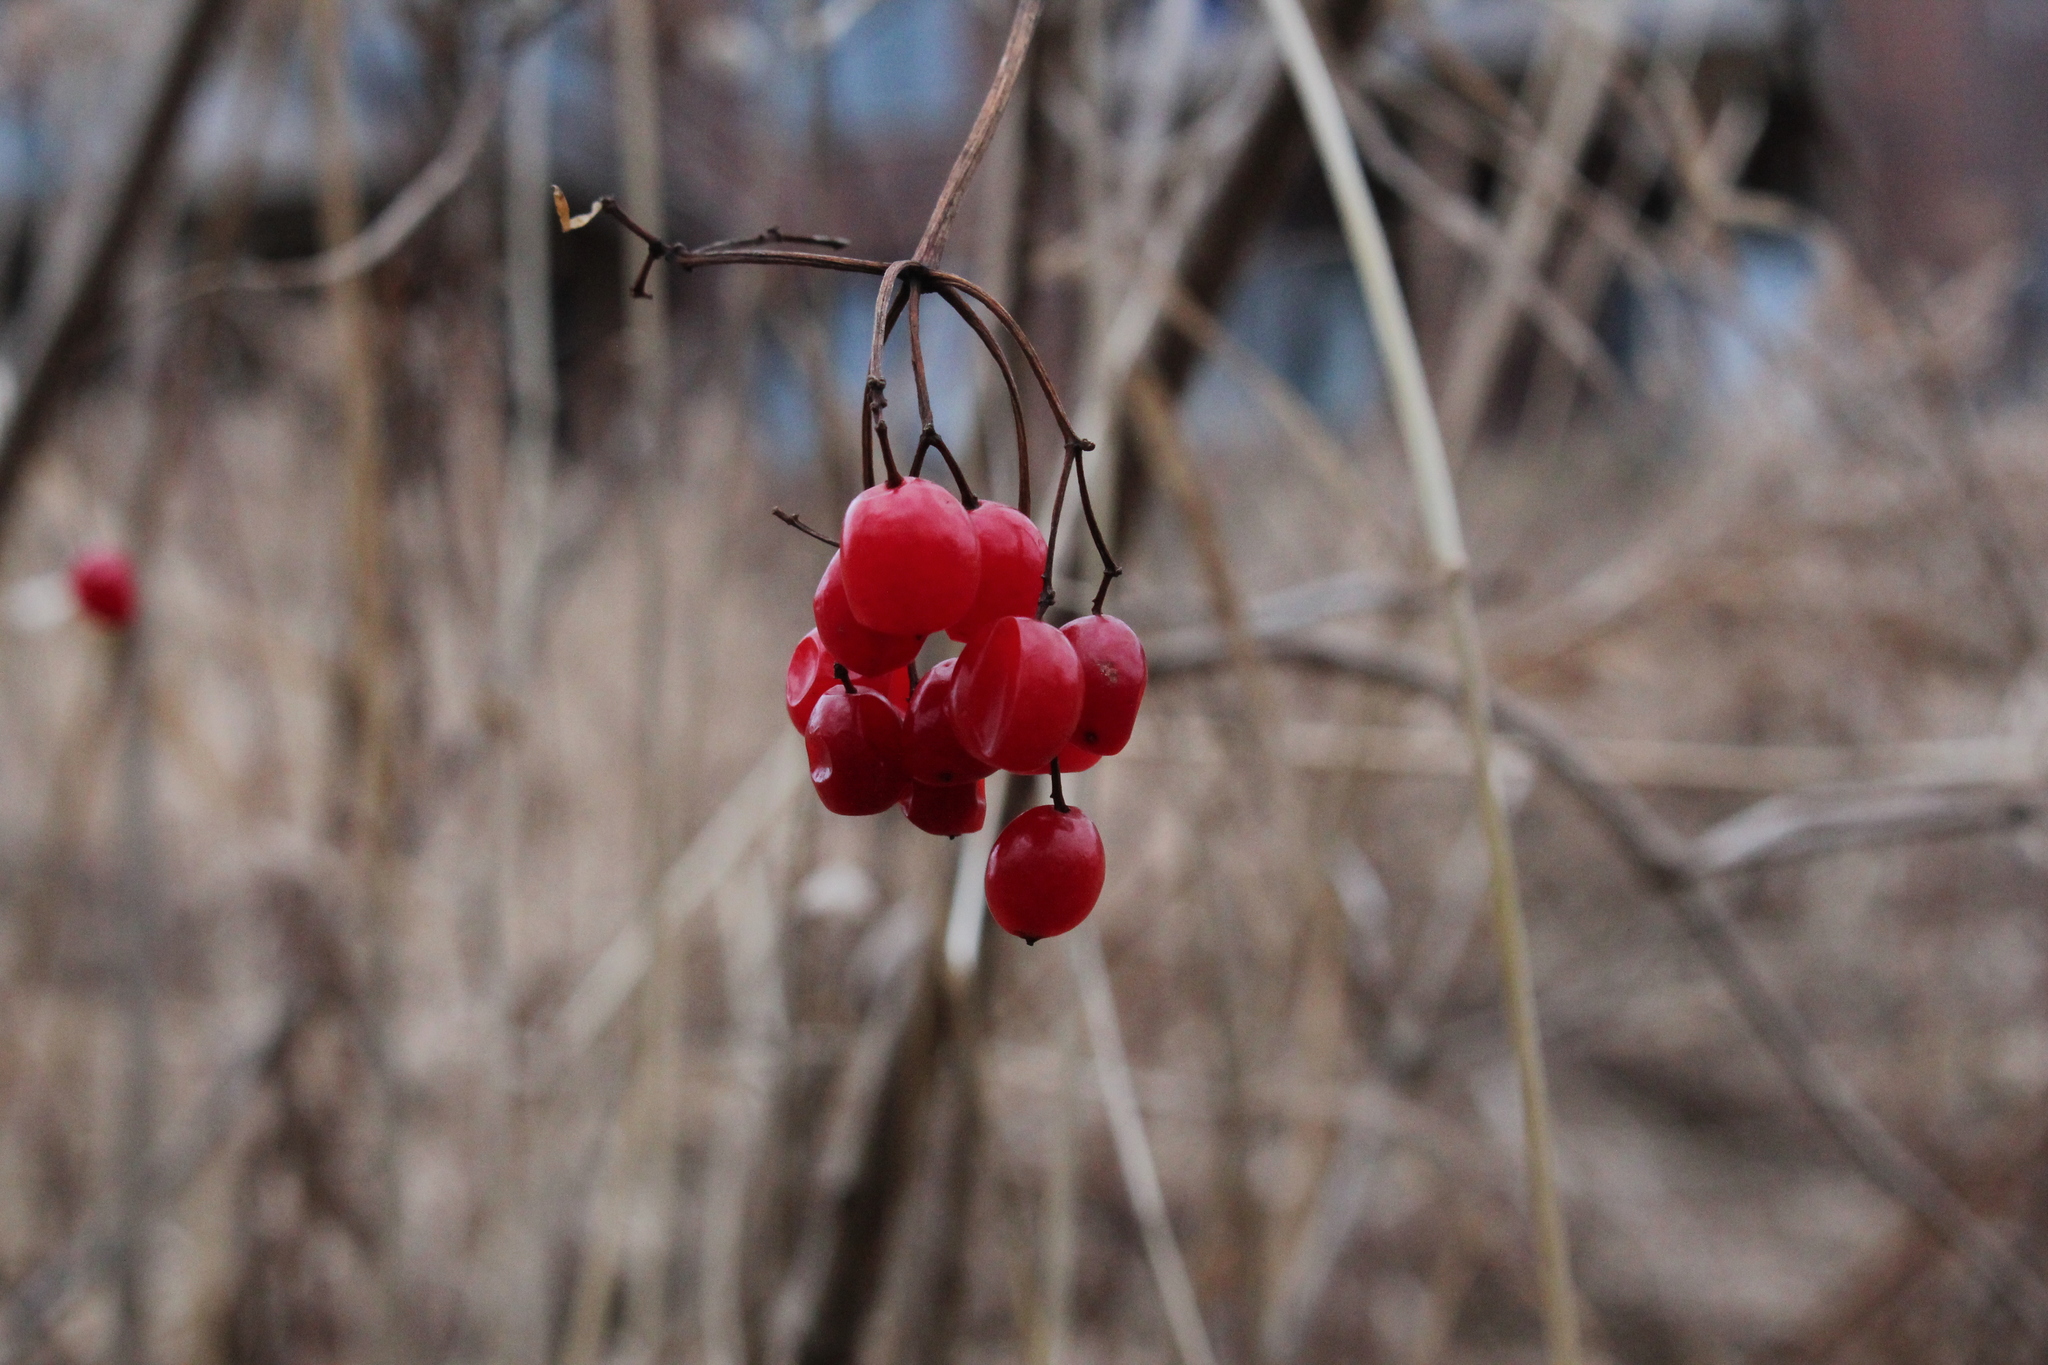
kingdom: Plantae
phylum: Tracheophyta
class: Magnoliopsida
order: Dipsacales
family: Viburnaceae
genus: Viburnum
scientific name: Viburnum opulus
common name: Guelder-rose
